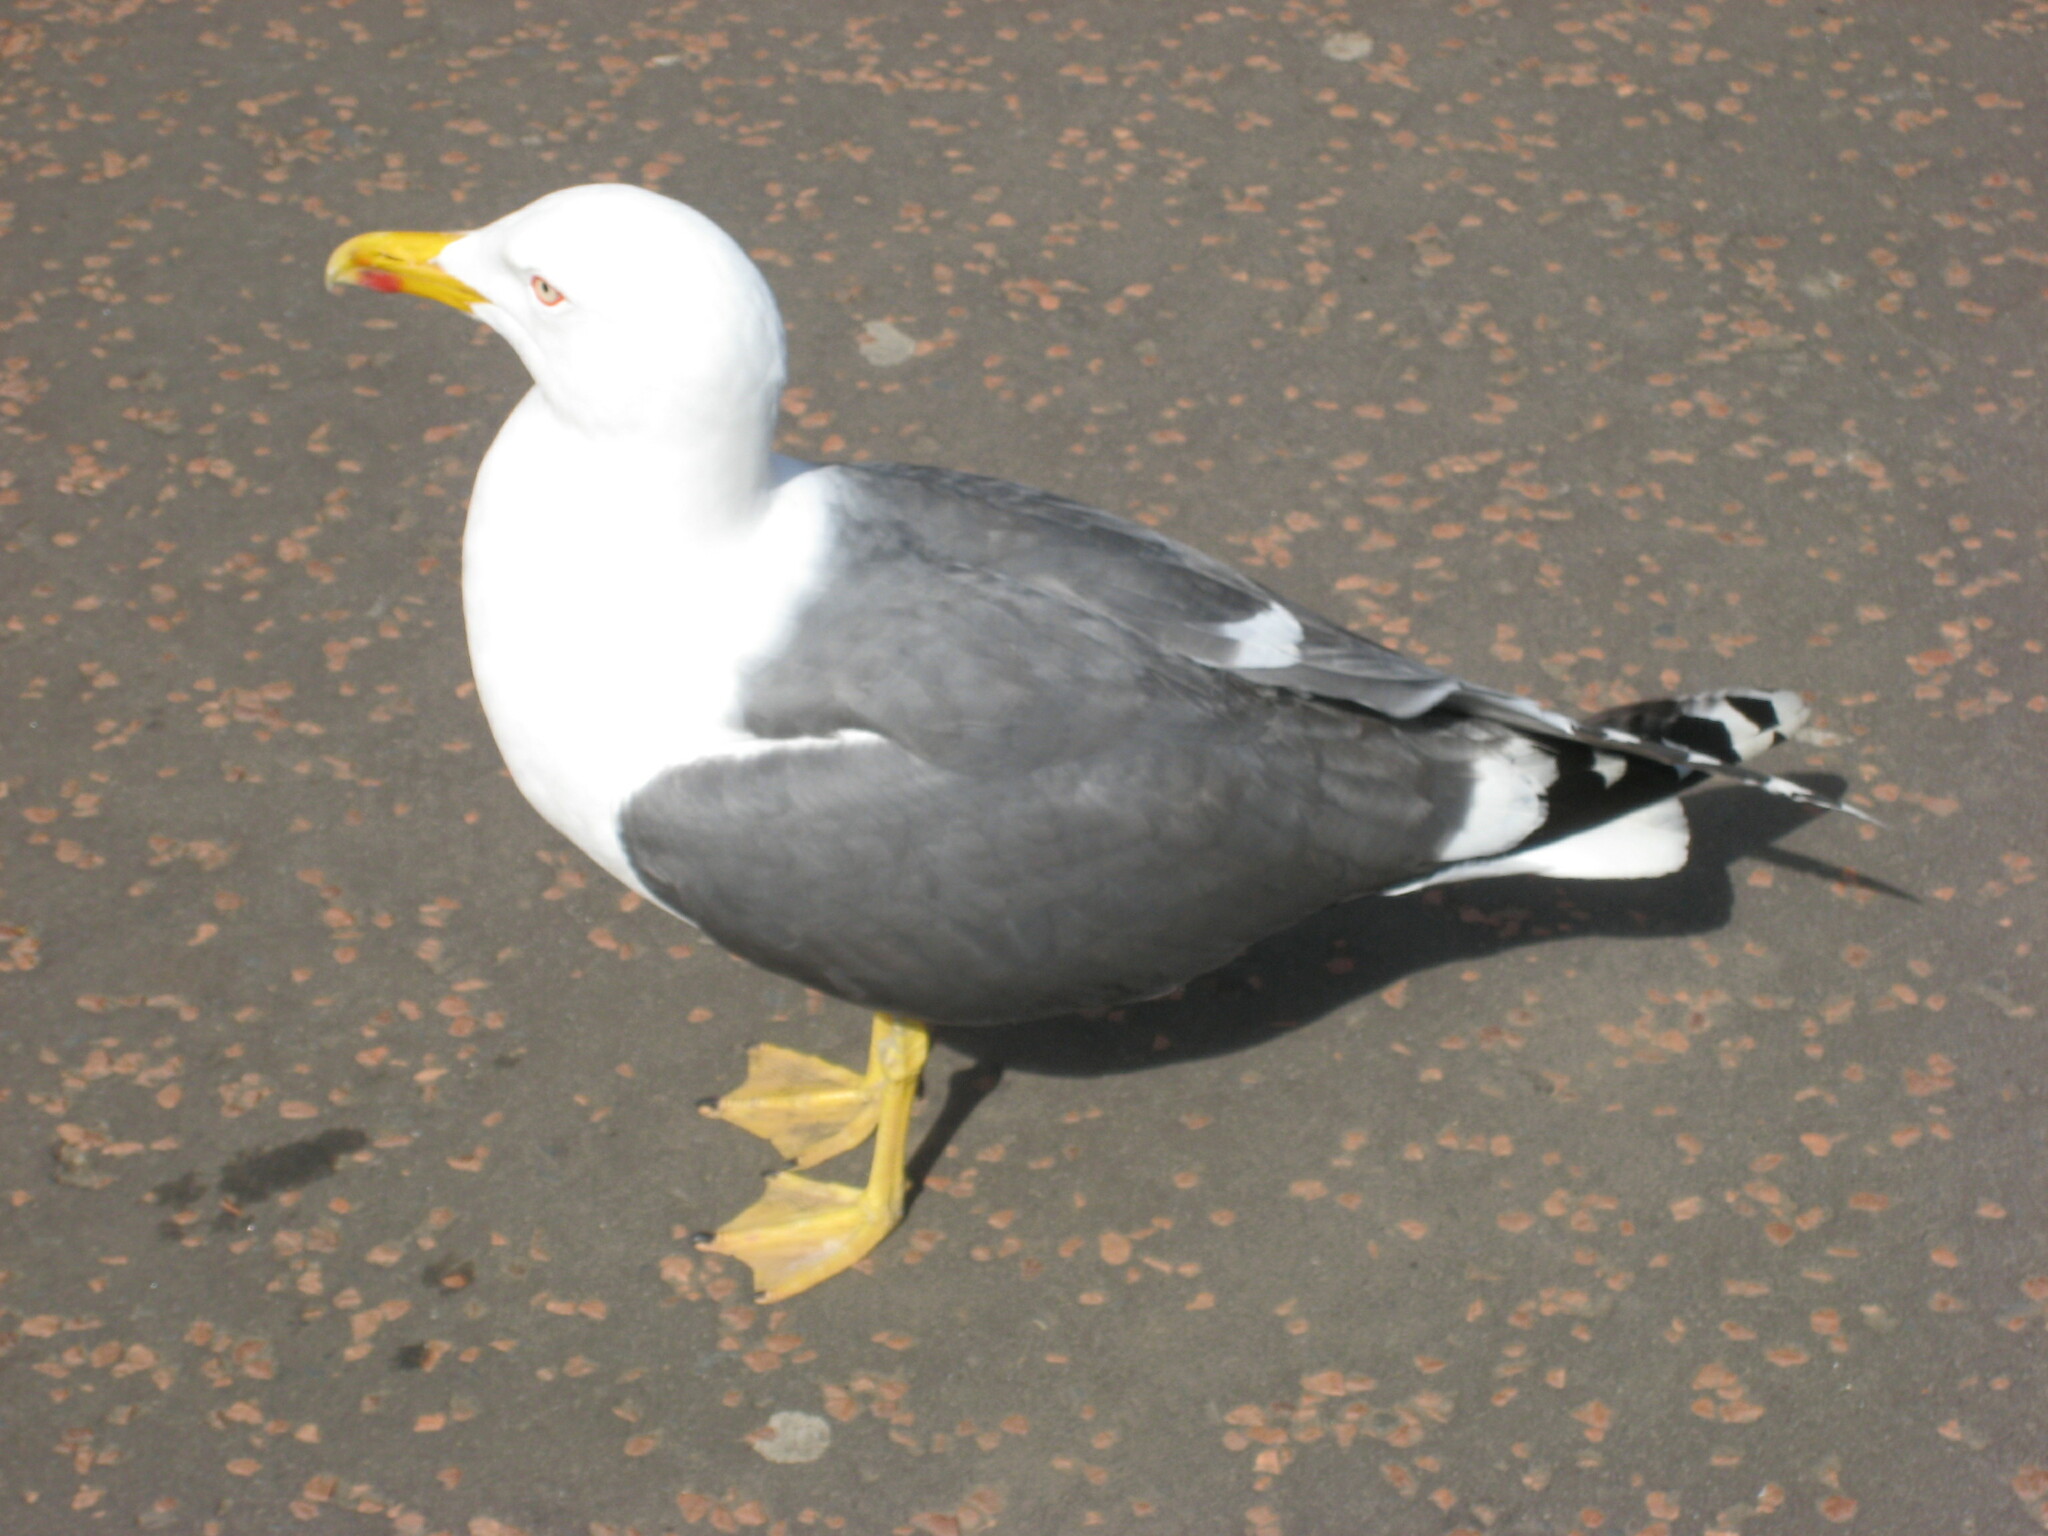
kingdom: Animalia
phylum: Chordata
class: Aves
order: Charadriiformes
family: Laridae
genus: Larus
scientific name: Larus fuscus
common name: Lesser black-backed gull
